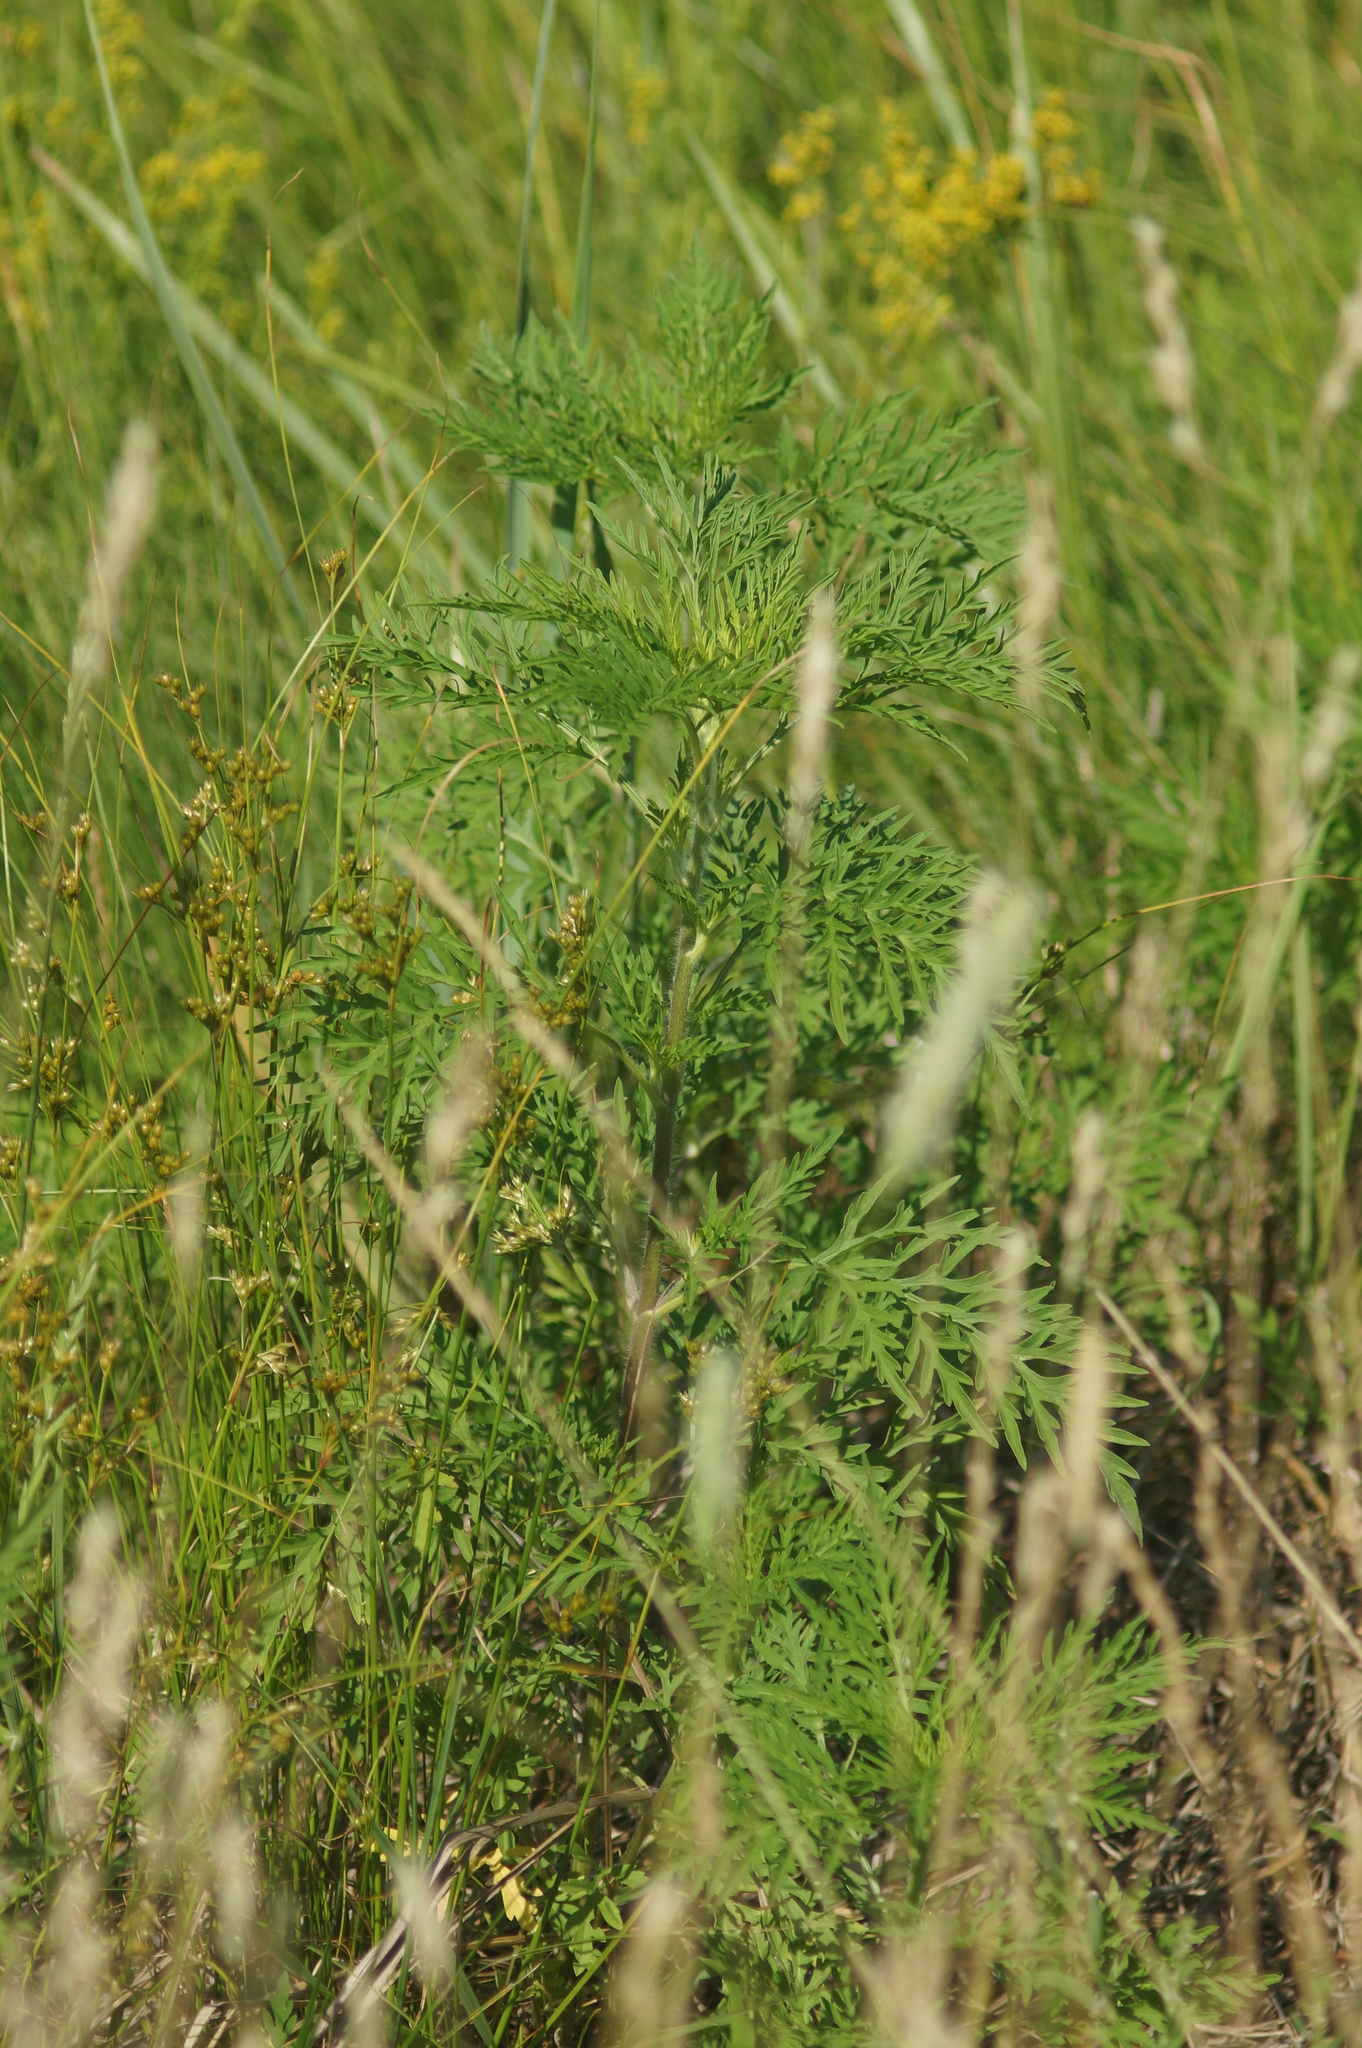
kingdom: Plantae
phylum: Tracheophyta
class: Magnoliopsida
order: Asterales
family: Asteraceae
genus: Ambrosia
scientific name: Ambrosia artemisiifolia
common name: Annual ragweed
